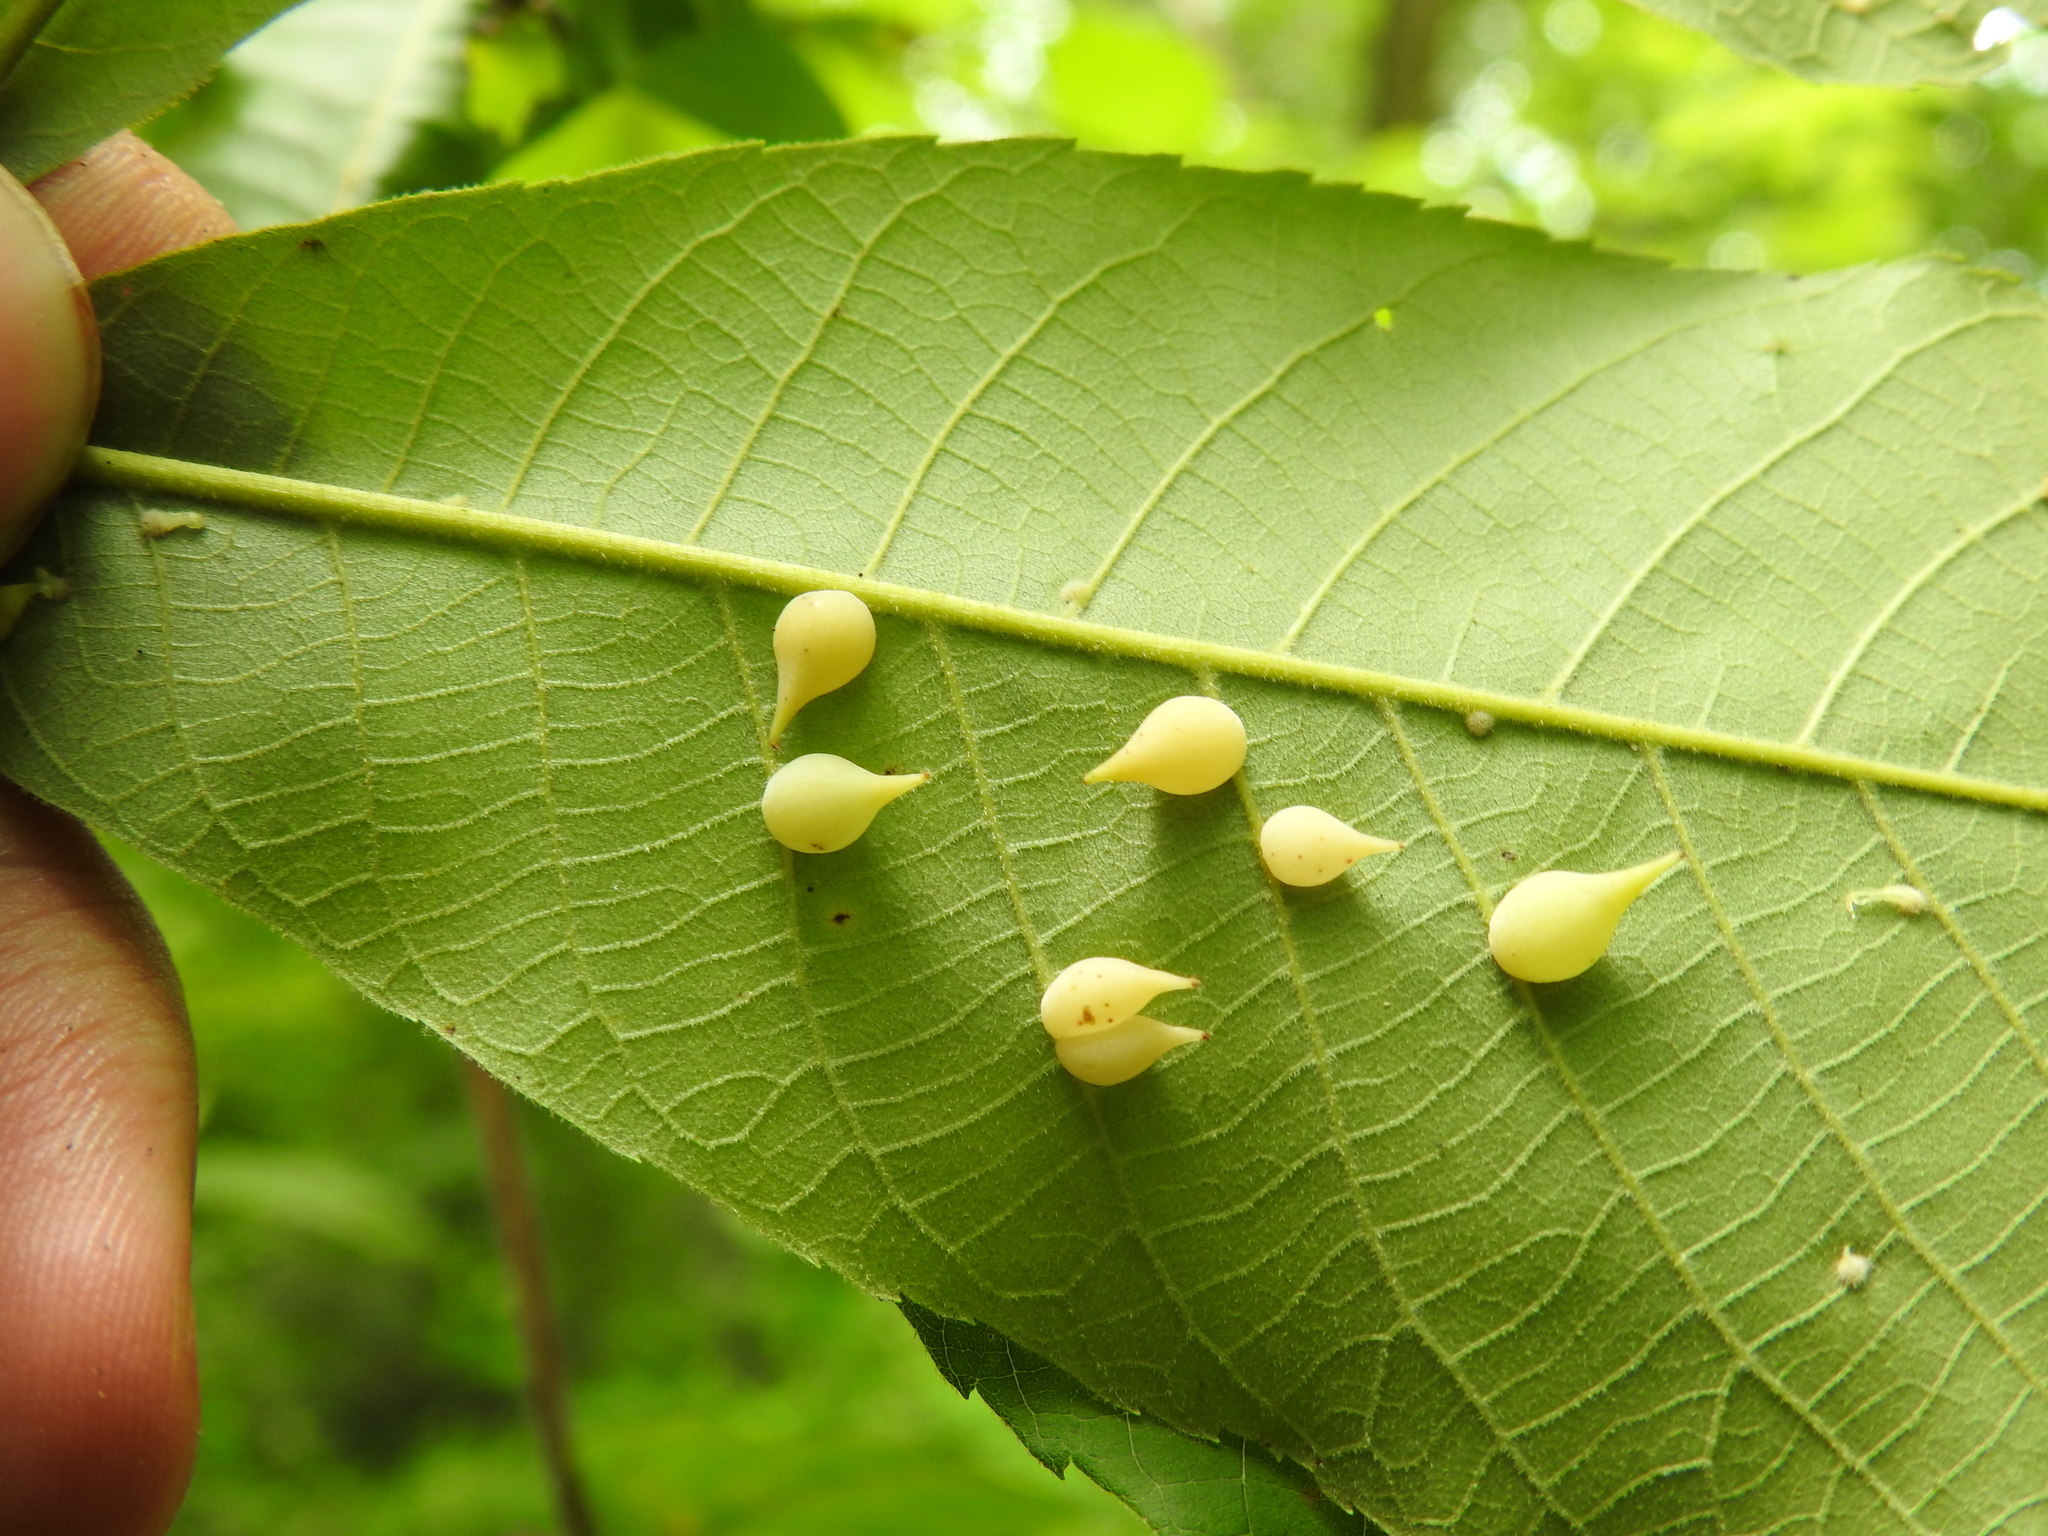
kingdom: Animalia
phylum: Arthropoda
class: Insecta
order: Diptera
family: Cecidomyiidae
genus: Caryomyia
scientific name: Caryomyia caryaecola
